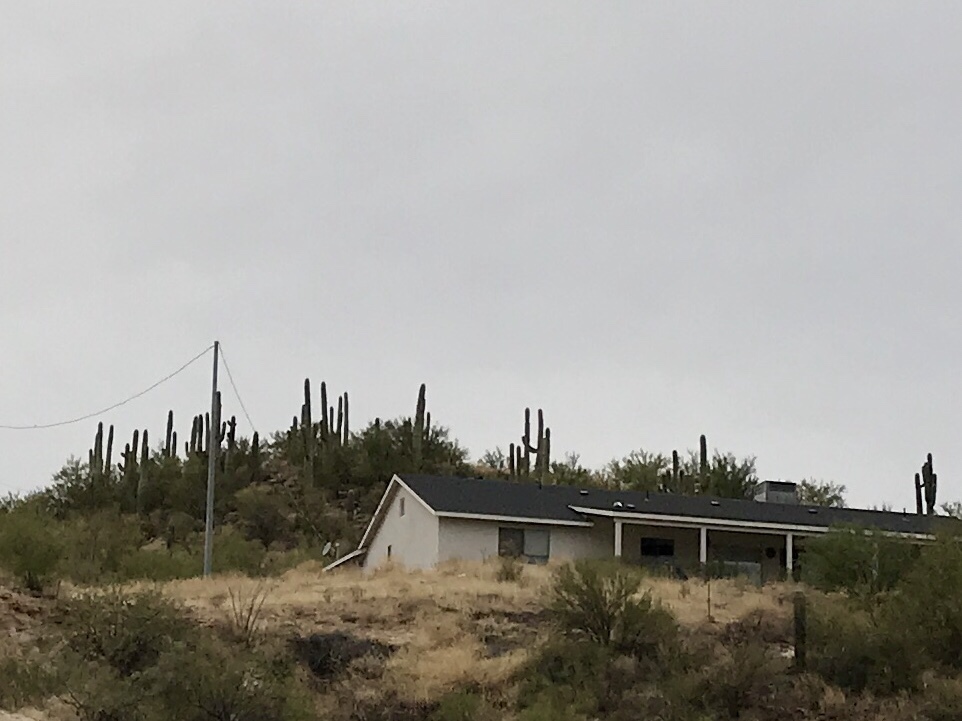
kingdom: Plantae
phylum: Tracheophyta
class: Magnoliopsida
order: Caryophyllales
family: Cactaceae
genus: Carnegiea
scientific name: Carnegiea gigantea
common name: Saguaro
